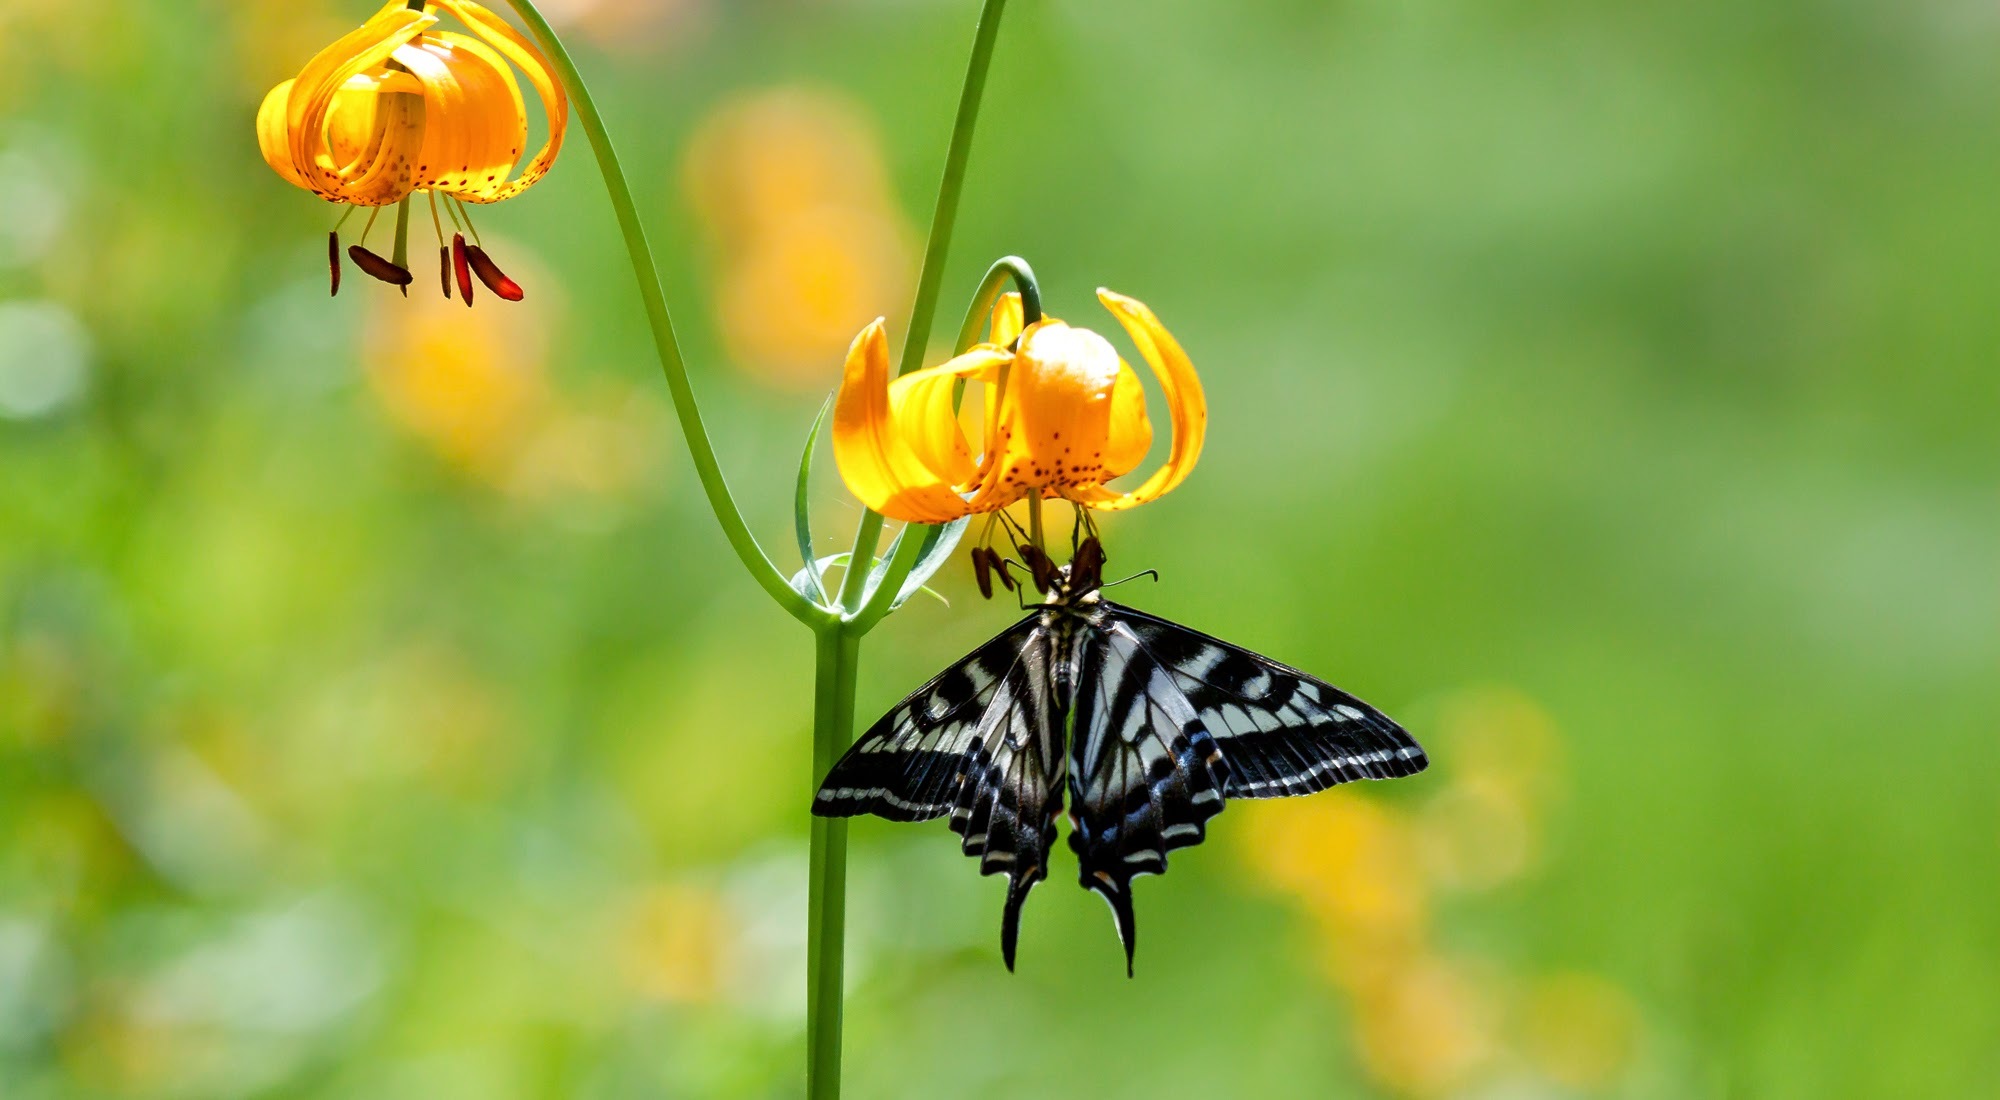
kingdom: Animalia
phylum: Arthropoda
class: Insecta
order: Lepidoptera
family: Papilionidae
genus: Papilio
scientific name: Papilio eurymedon
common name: Pale tiger swallowtail
